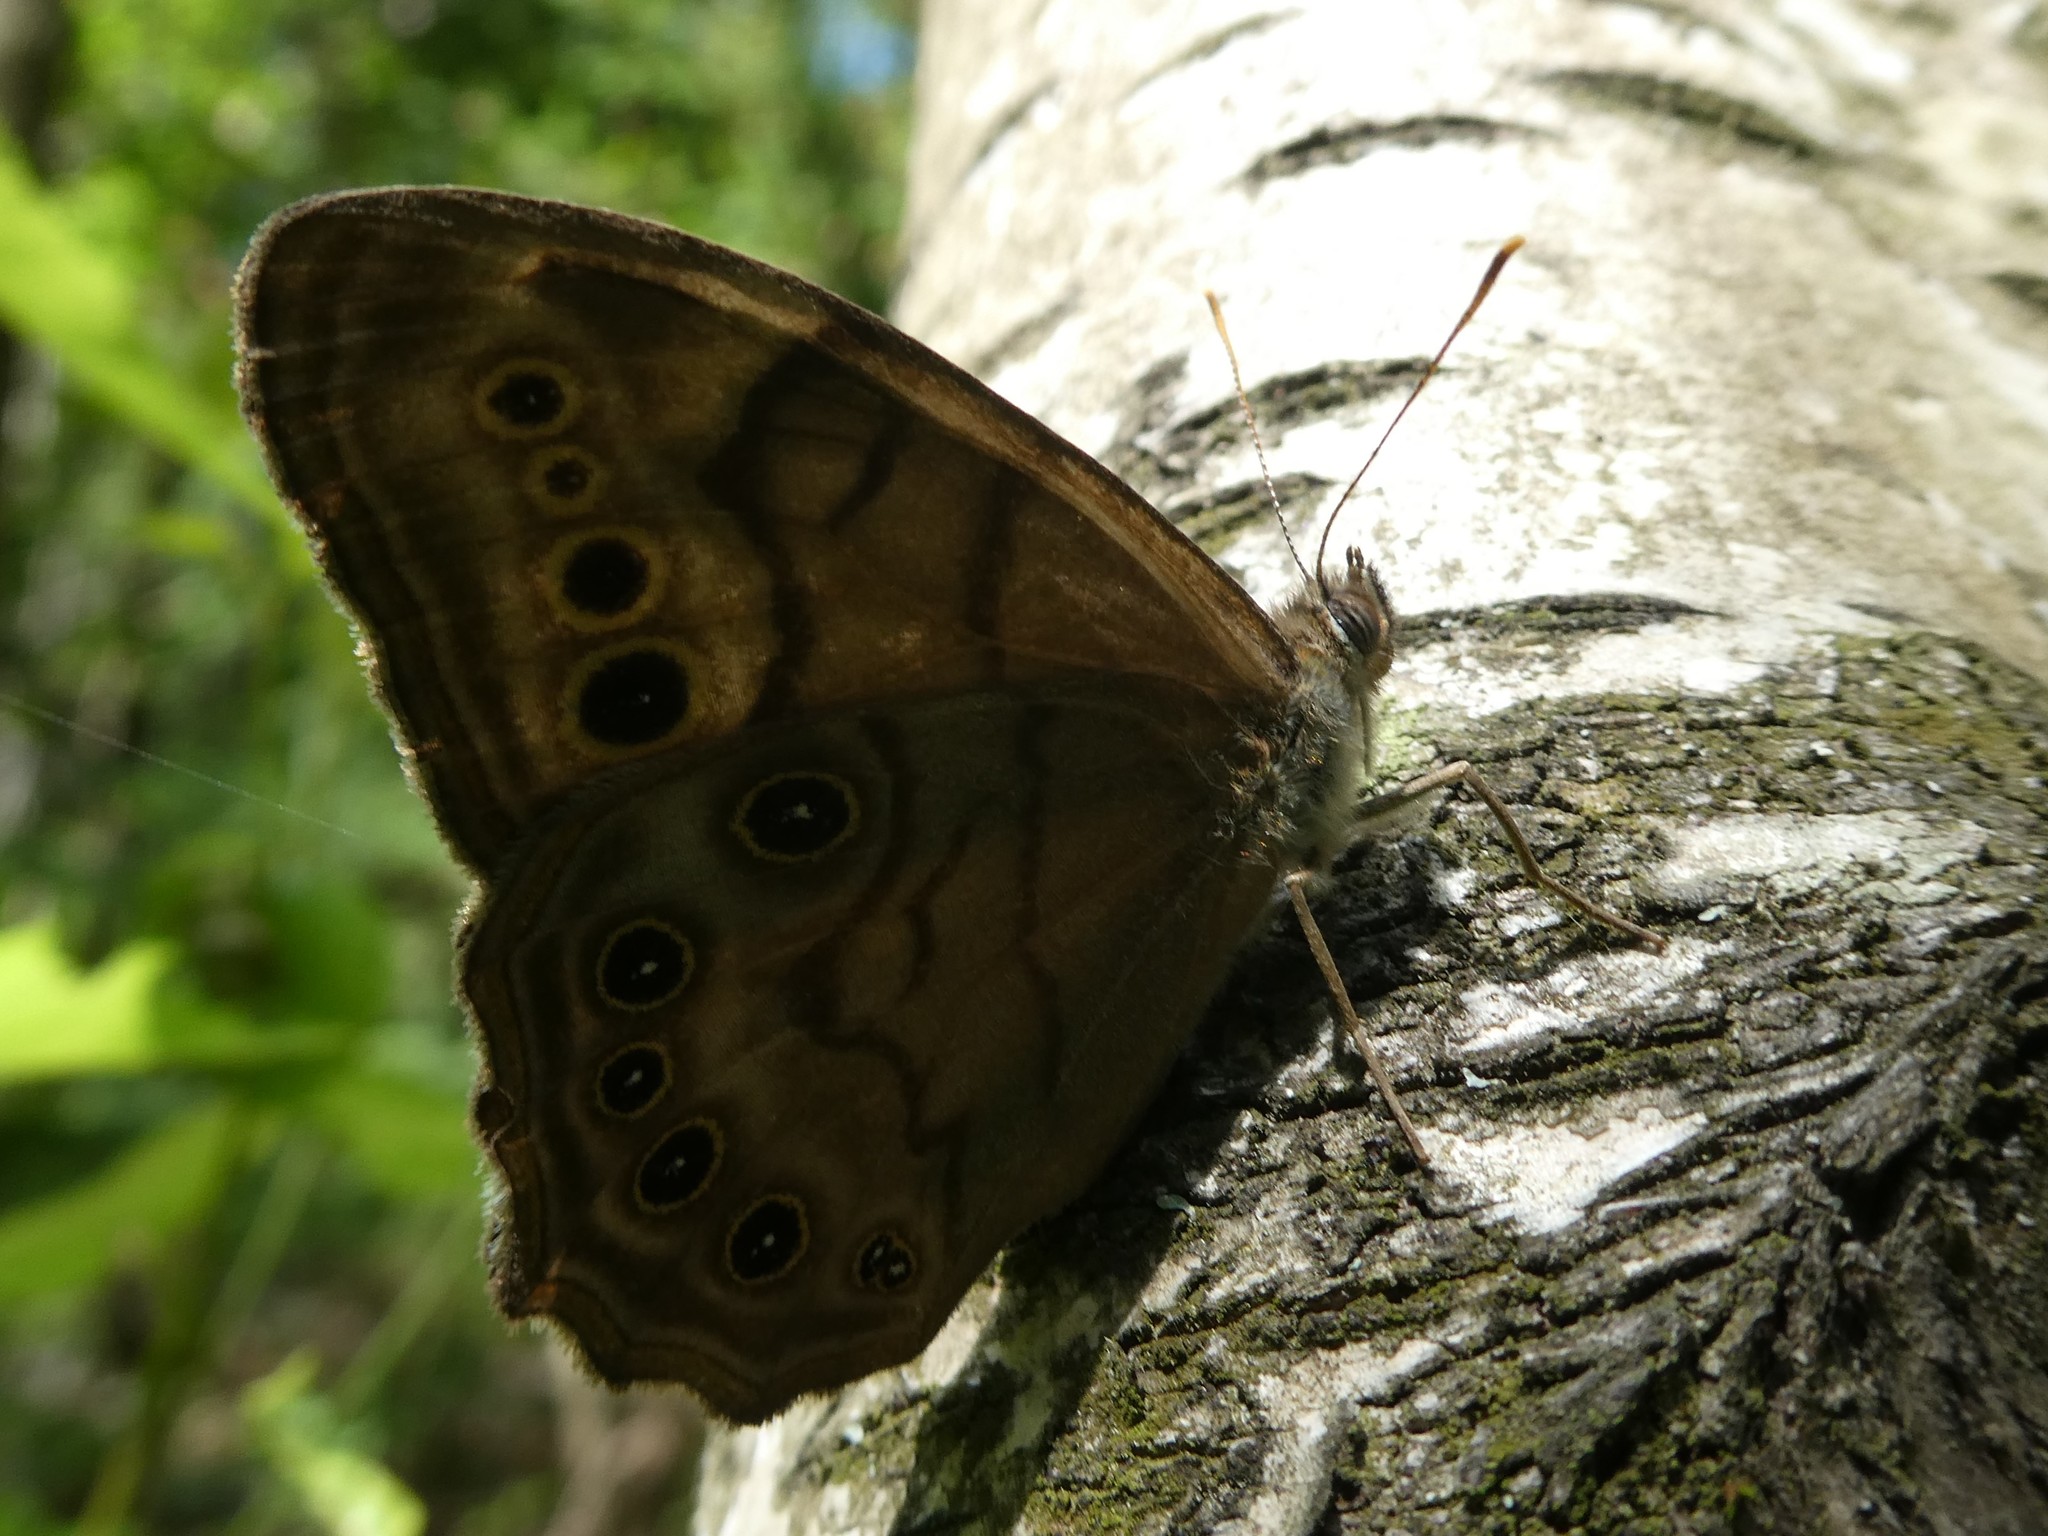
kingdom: Animalia
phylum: Arthropoda
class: Insecta
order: Lepidoptera
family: Nymphalidae
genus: Lethe
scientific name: Lethe anthedon
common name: Northern pearly-eye
